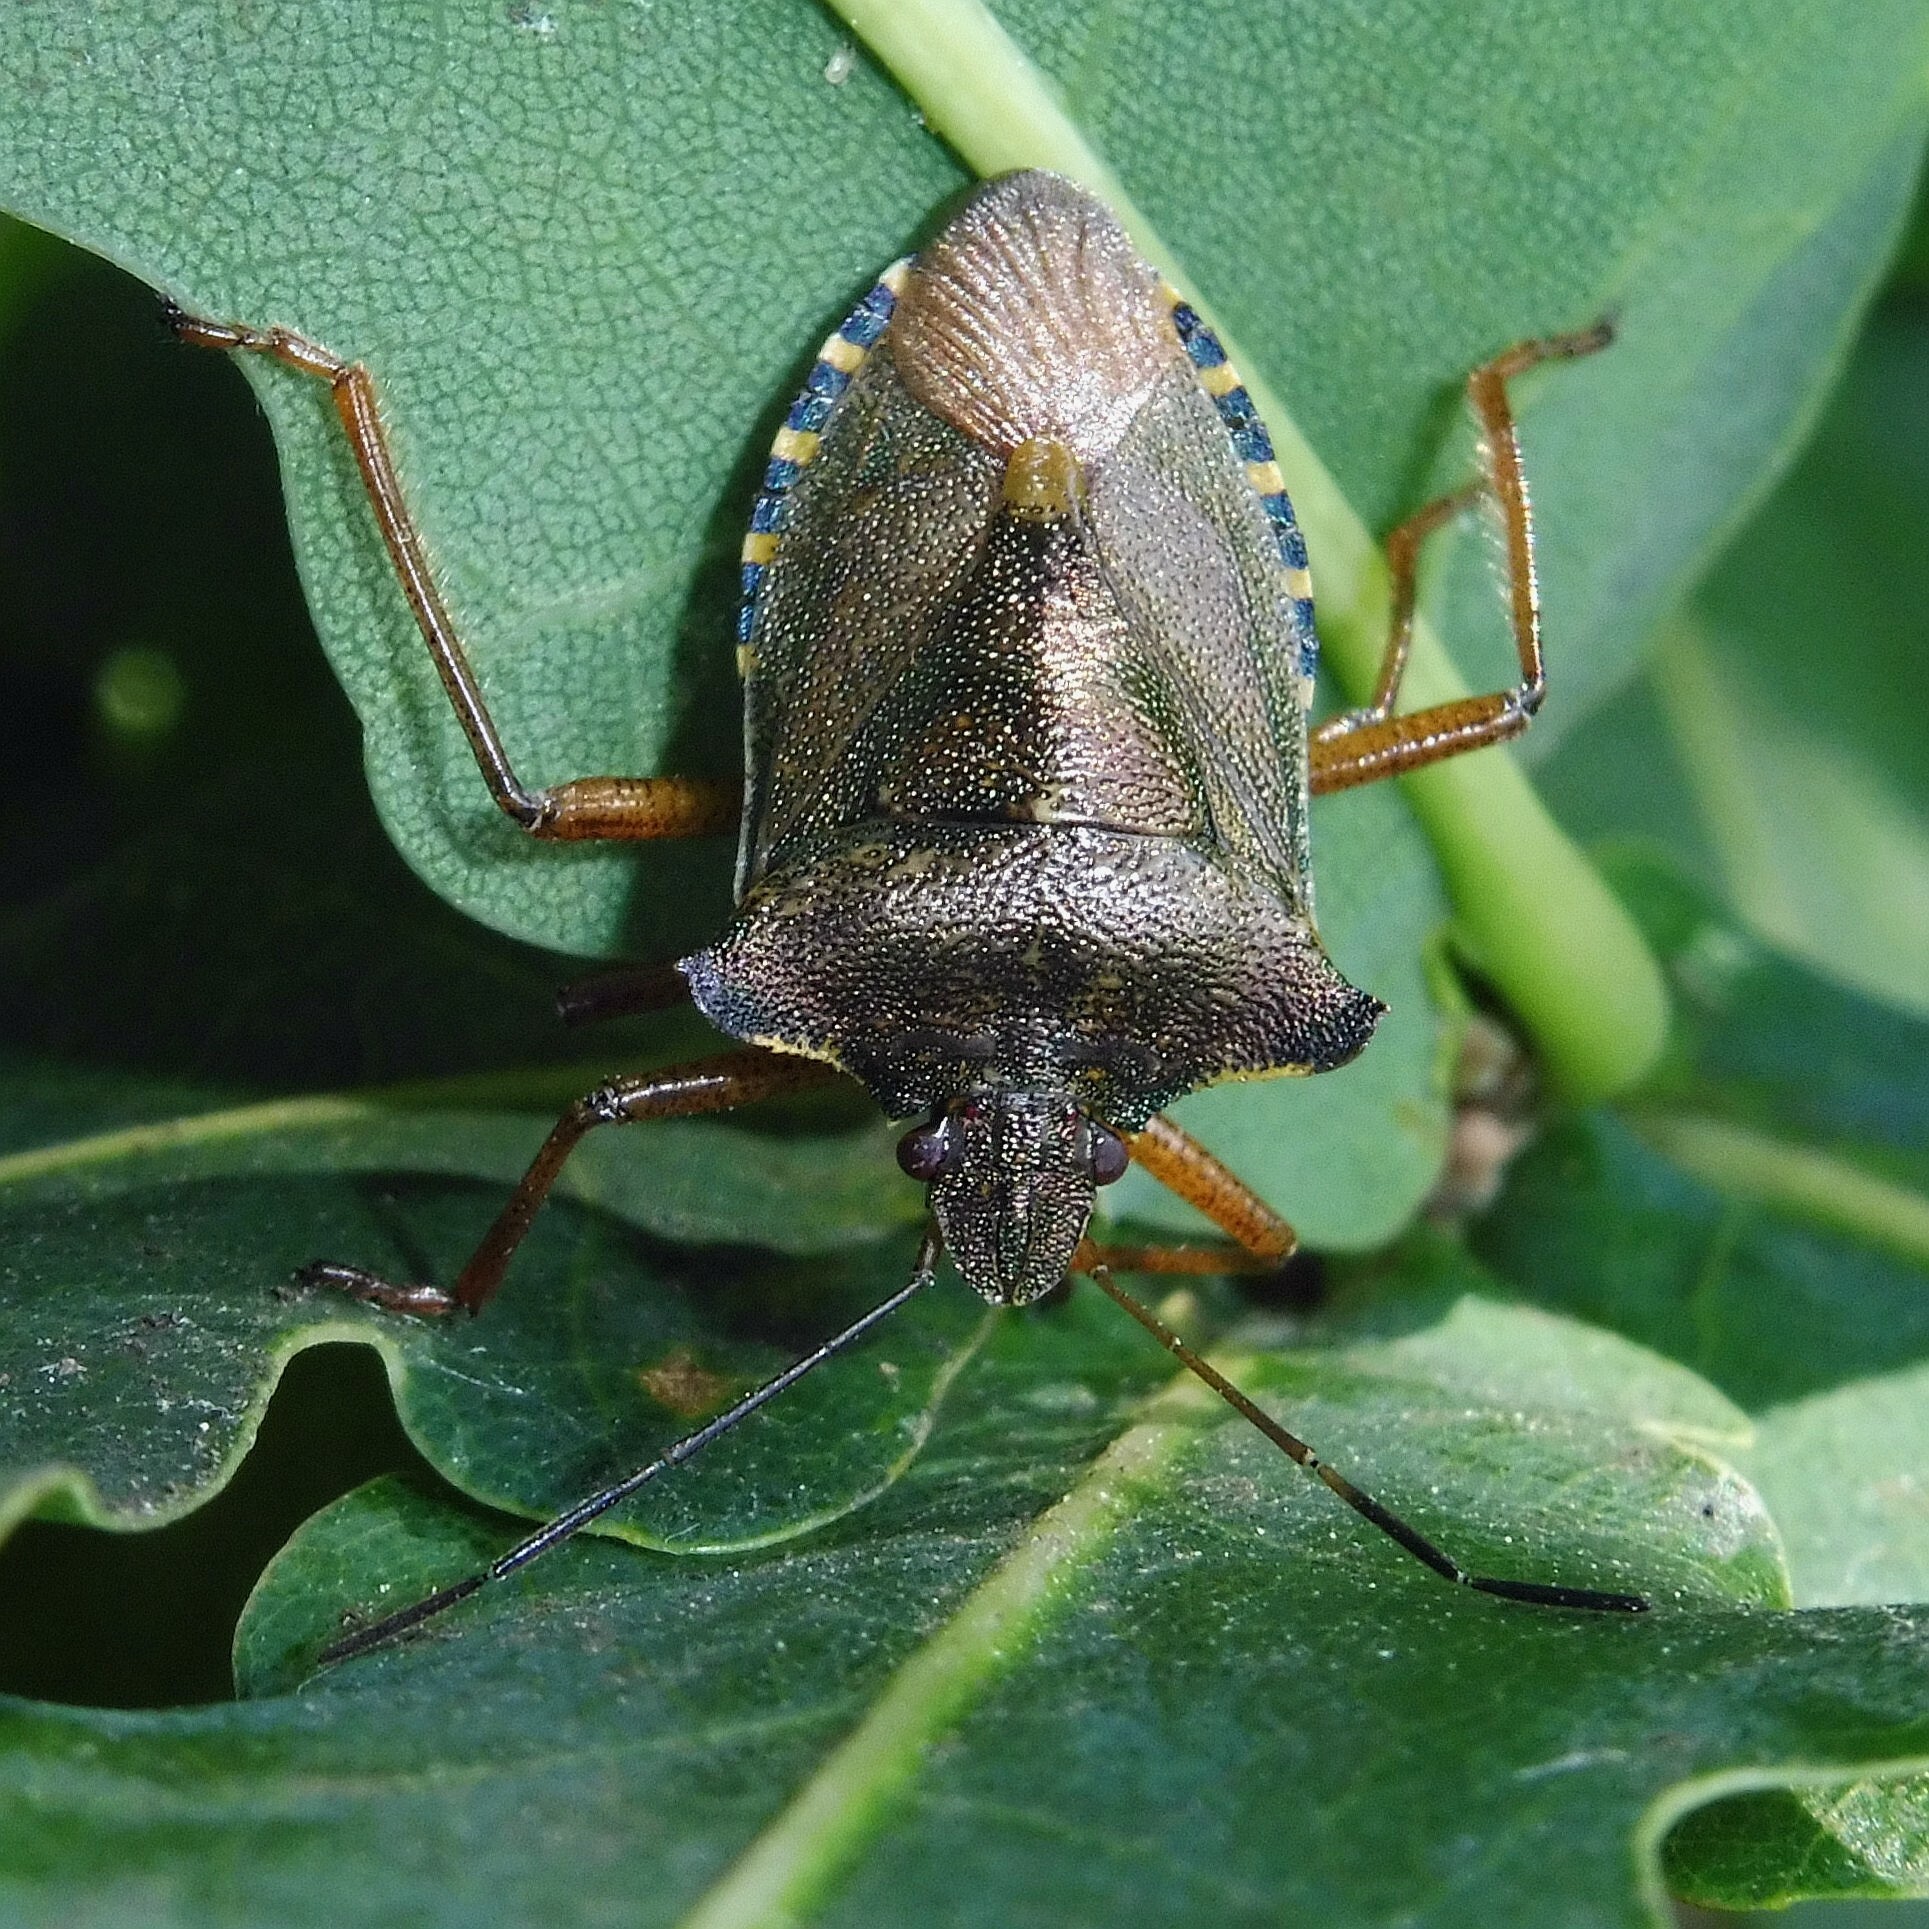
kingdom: Animalia
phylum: Arthropoda
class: Insecta
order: Hemiptera
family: Pentatomidae
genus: Pentatoma
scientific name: Pentatoma rufipes
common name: Forest bug
